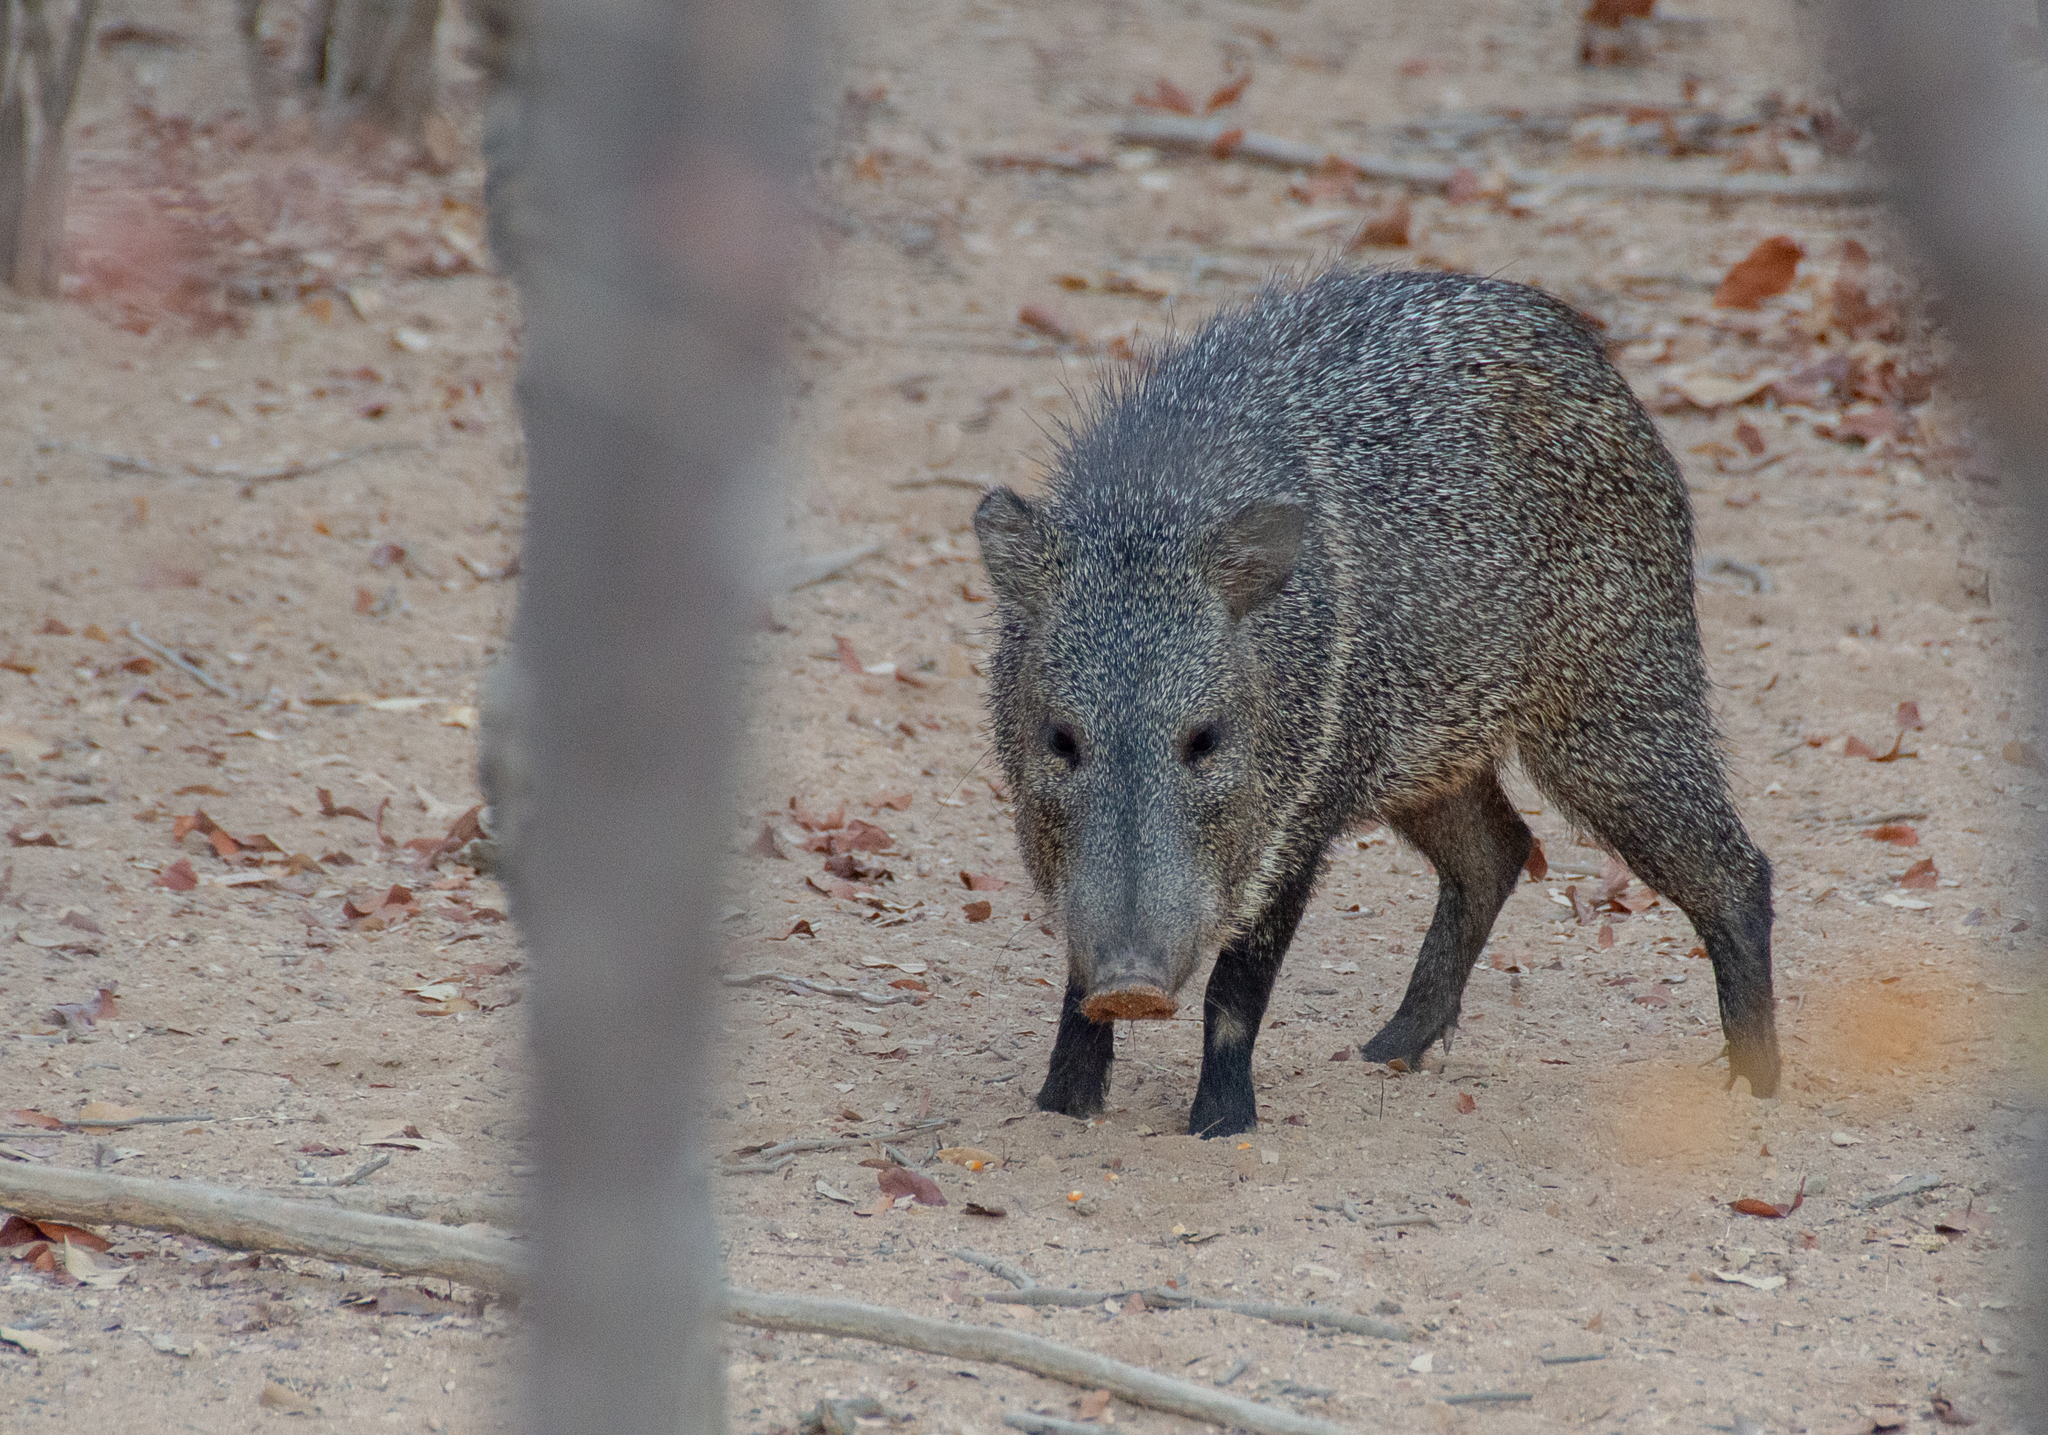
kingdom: Animalia
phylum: Chordata
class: Mammalia
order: Artiodactyla
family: Tayassuidae
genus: Pecari
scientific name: Pecari tajacu
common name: Collared peccary
